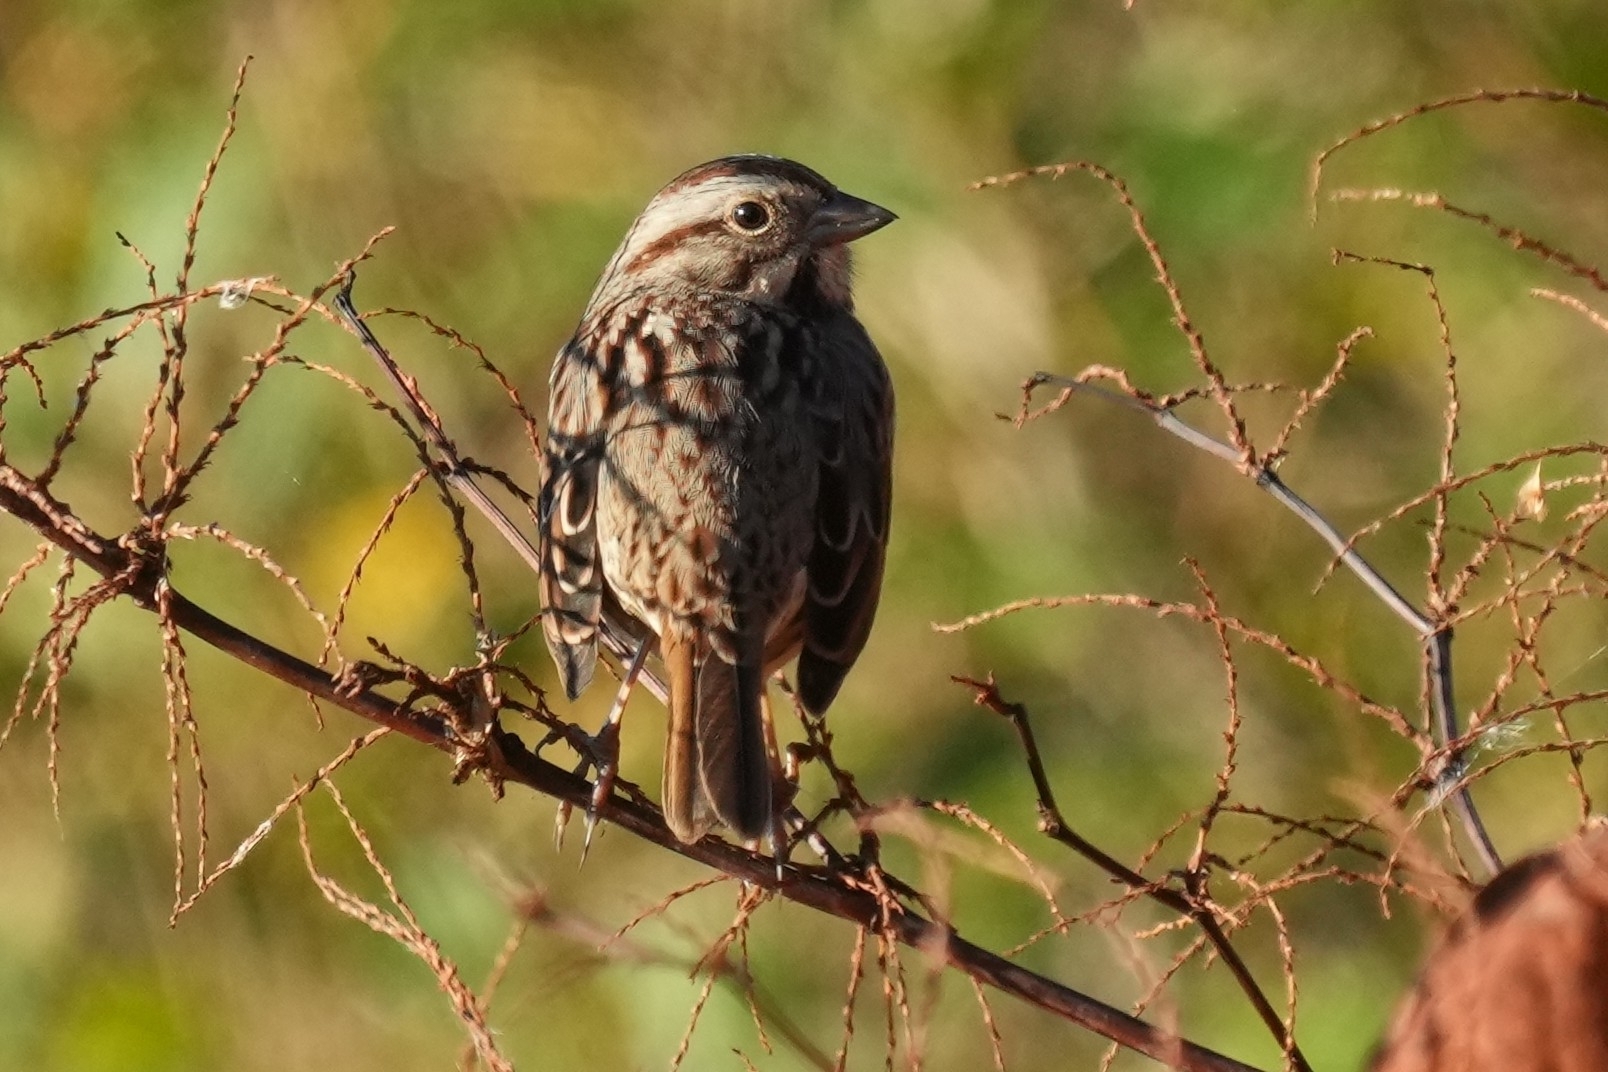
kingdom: Animalia
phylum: Chordata
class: Aves
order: Passeriformes
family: Passerellidae
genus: Melospiza
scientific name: Melospiza melodia
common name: Song sparrow
